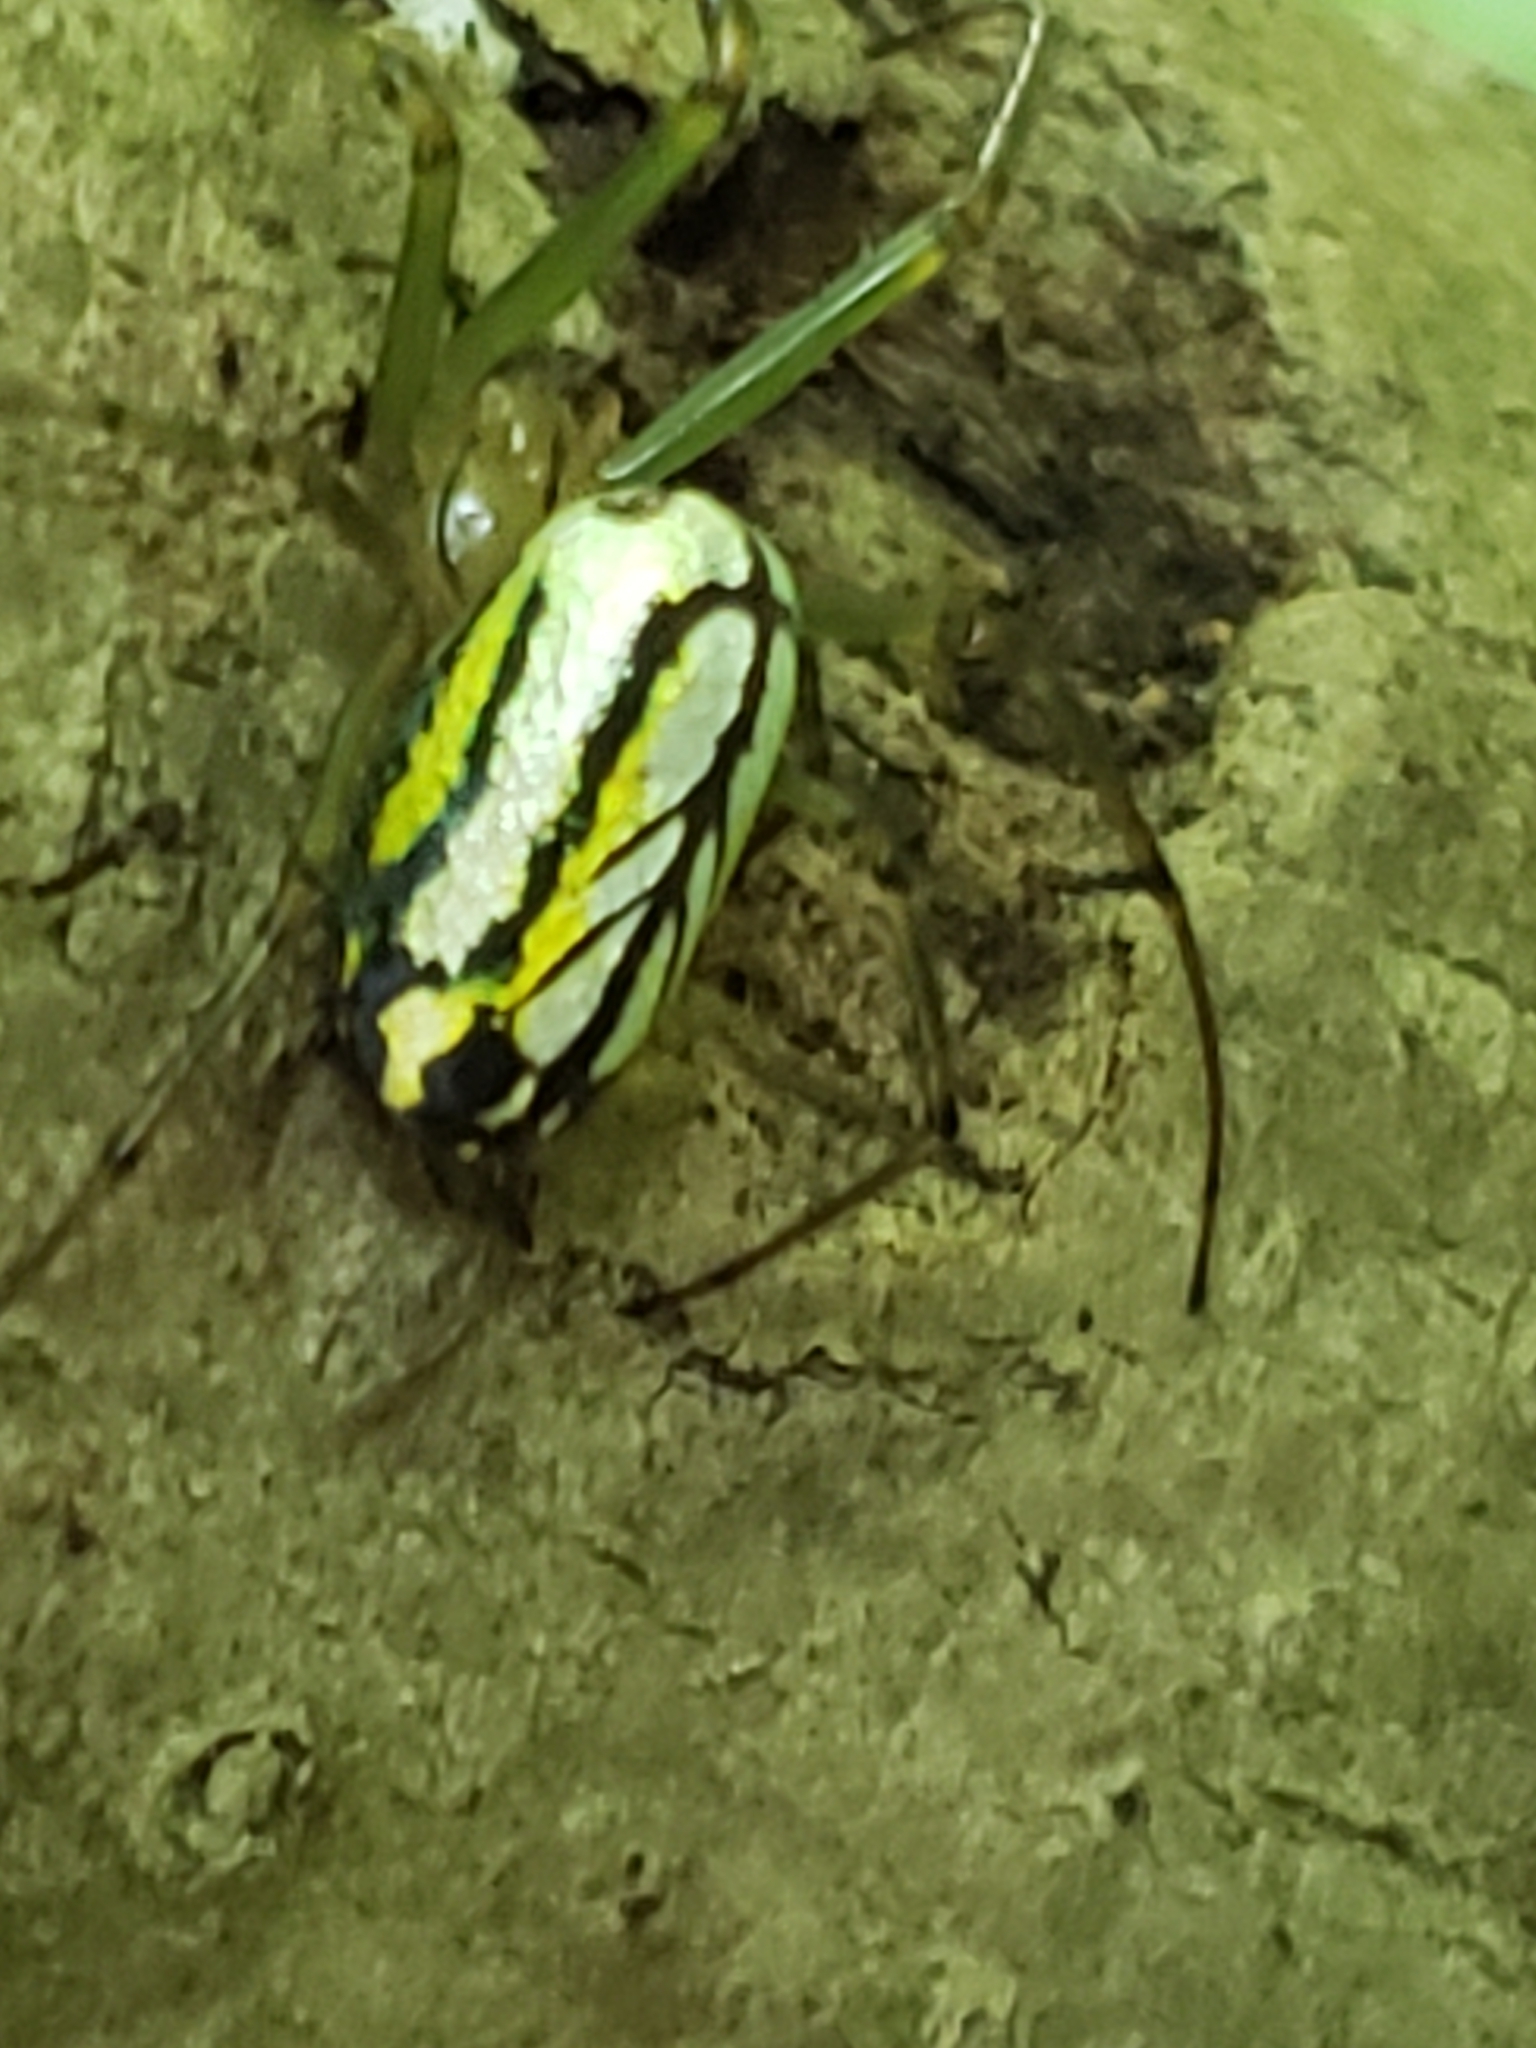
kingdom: Animalia
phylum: Arthropoda
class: Arachnida
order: Araneae
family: Tetragnathidae
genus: Leucauge
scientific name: Leucauge venusta
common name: Longjawed orb weavers
